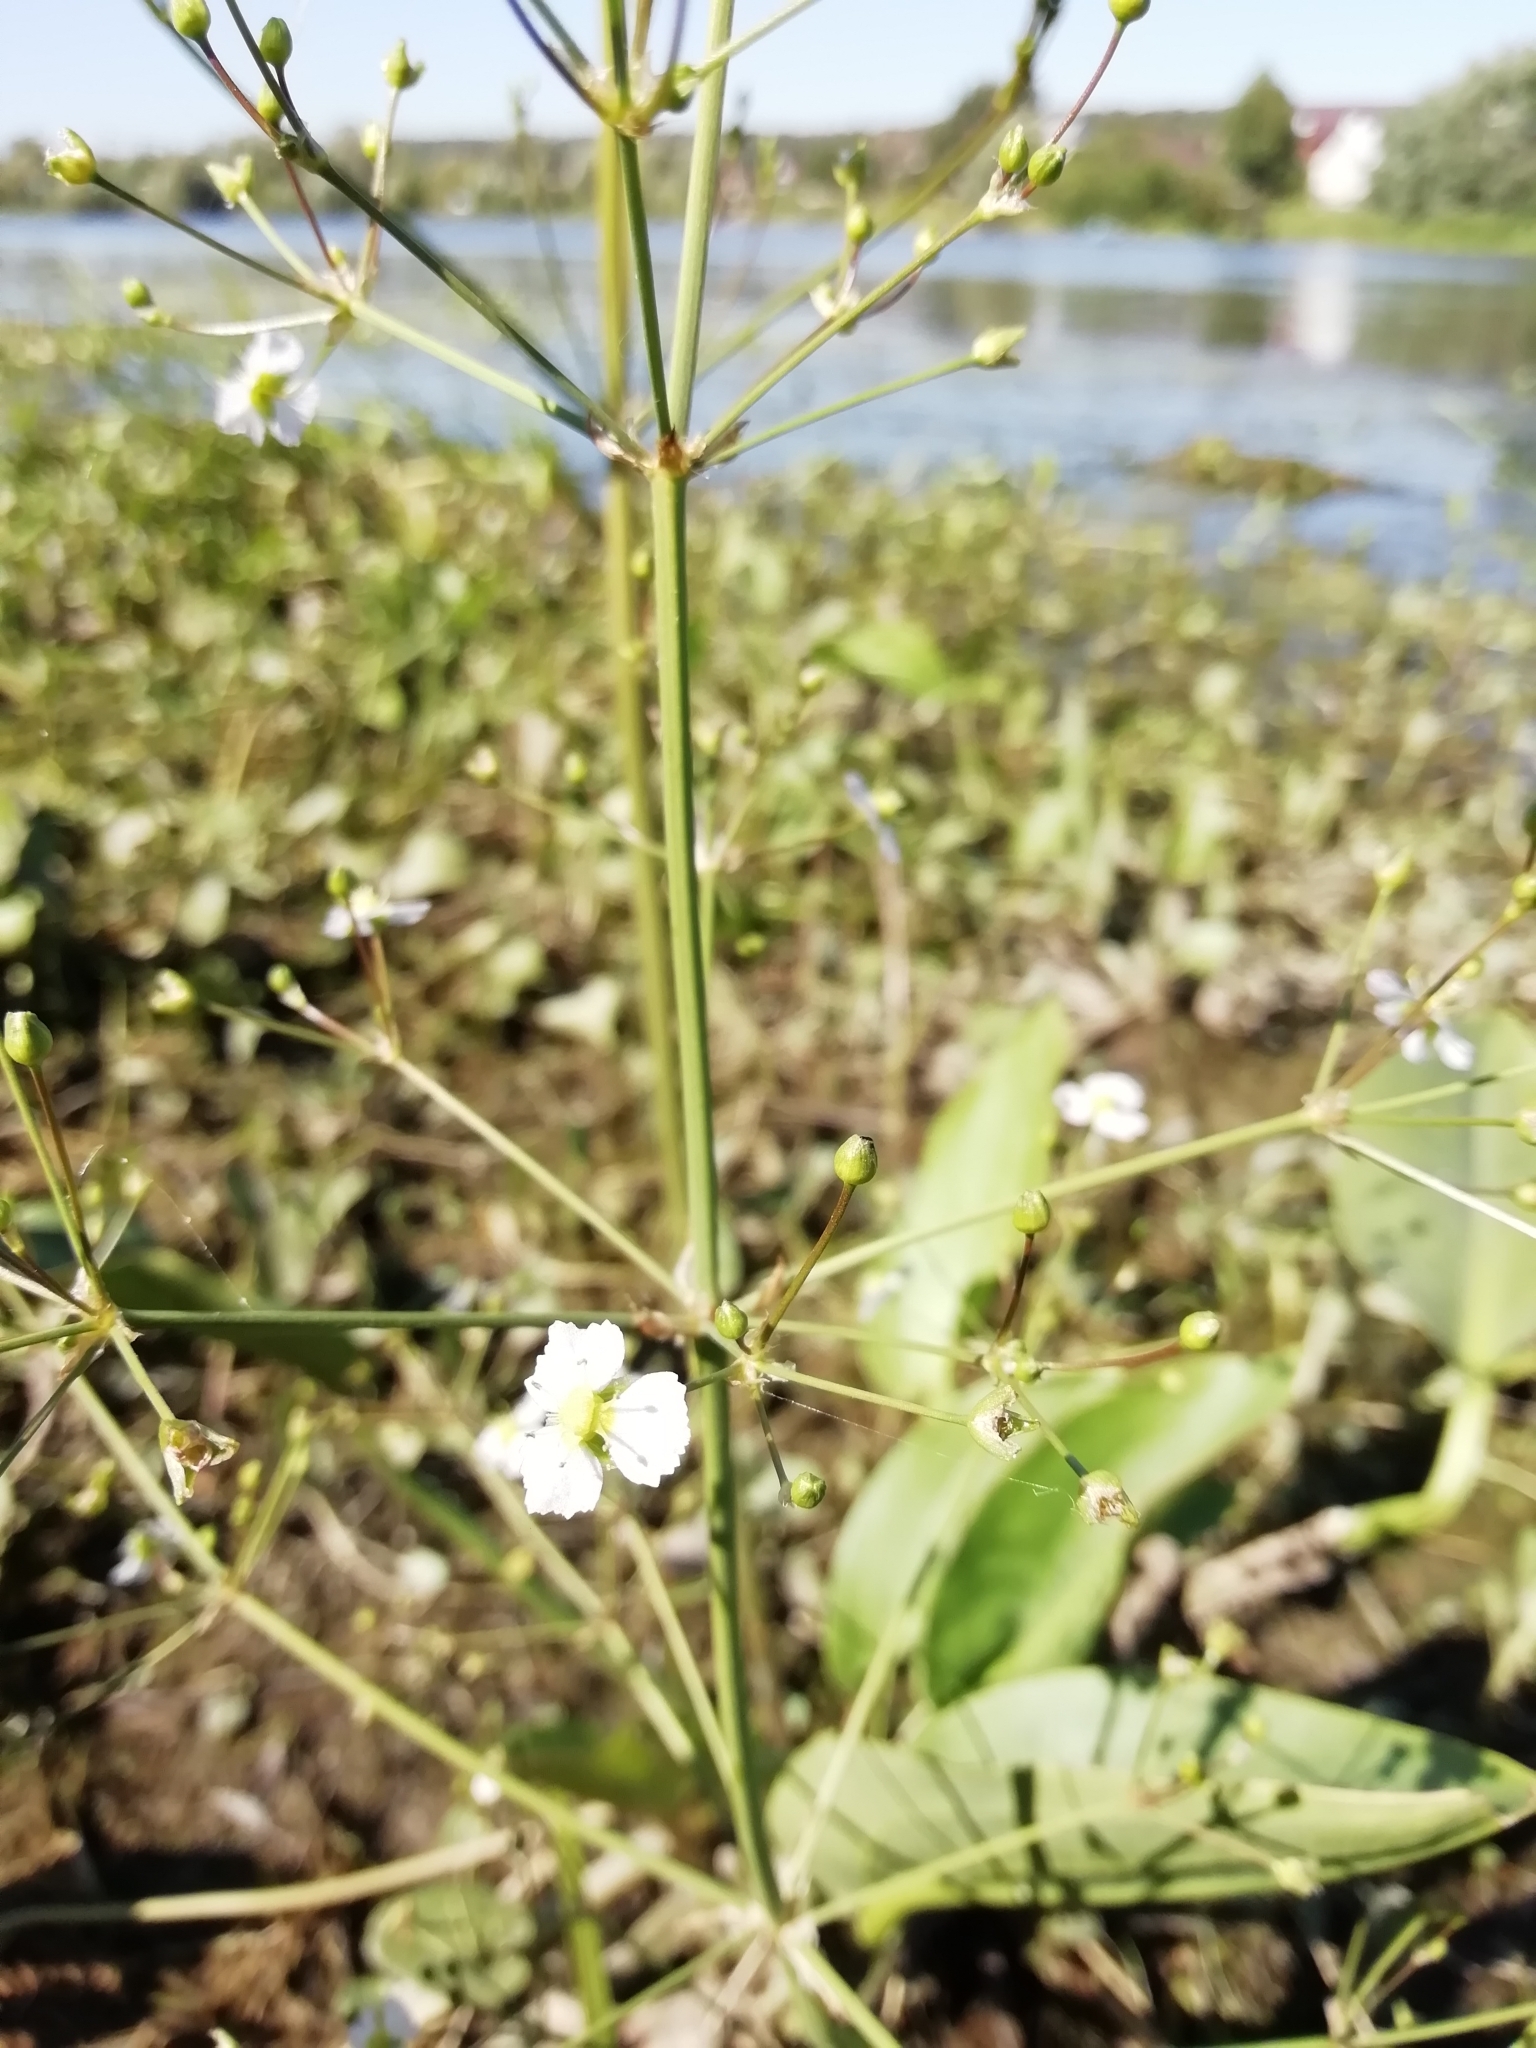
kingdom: Plantae
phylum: Tracheophyta
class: Liliopsida
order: Alismatales
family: Alismataceae
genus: Alisma
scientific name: Alisma plantago-aquatica
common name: Water-plantain
